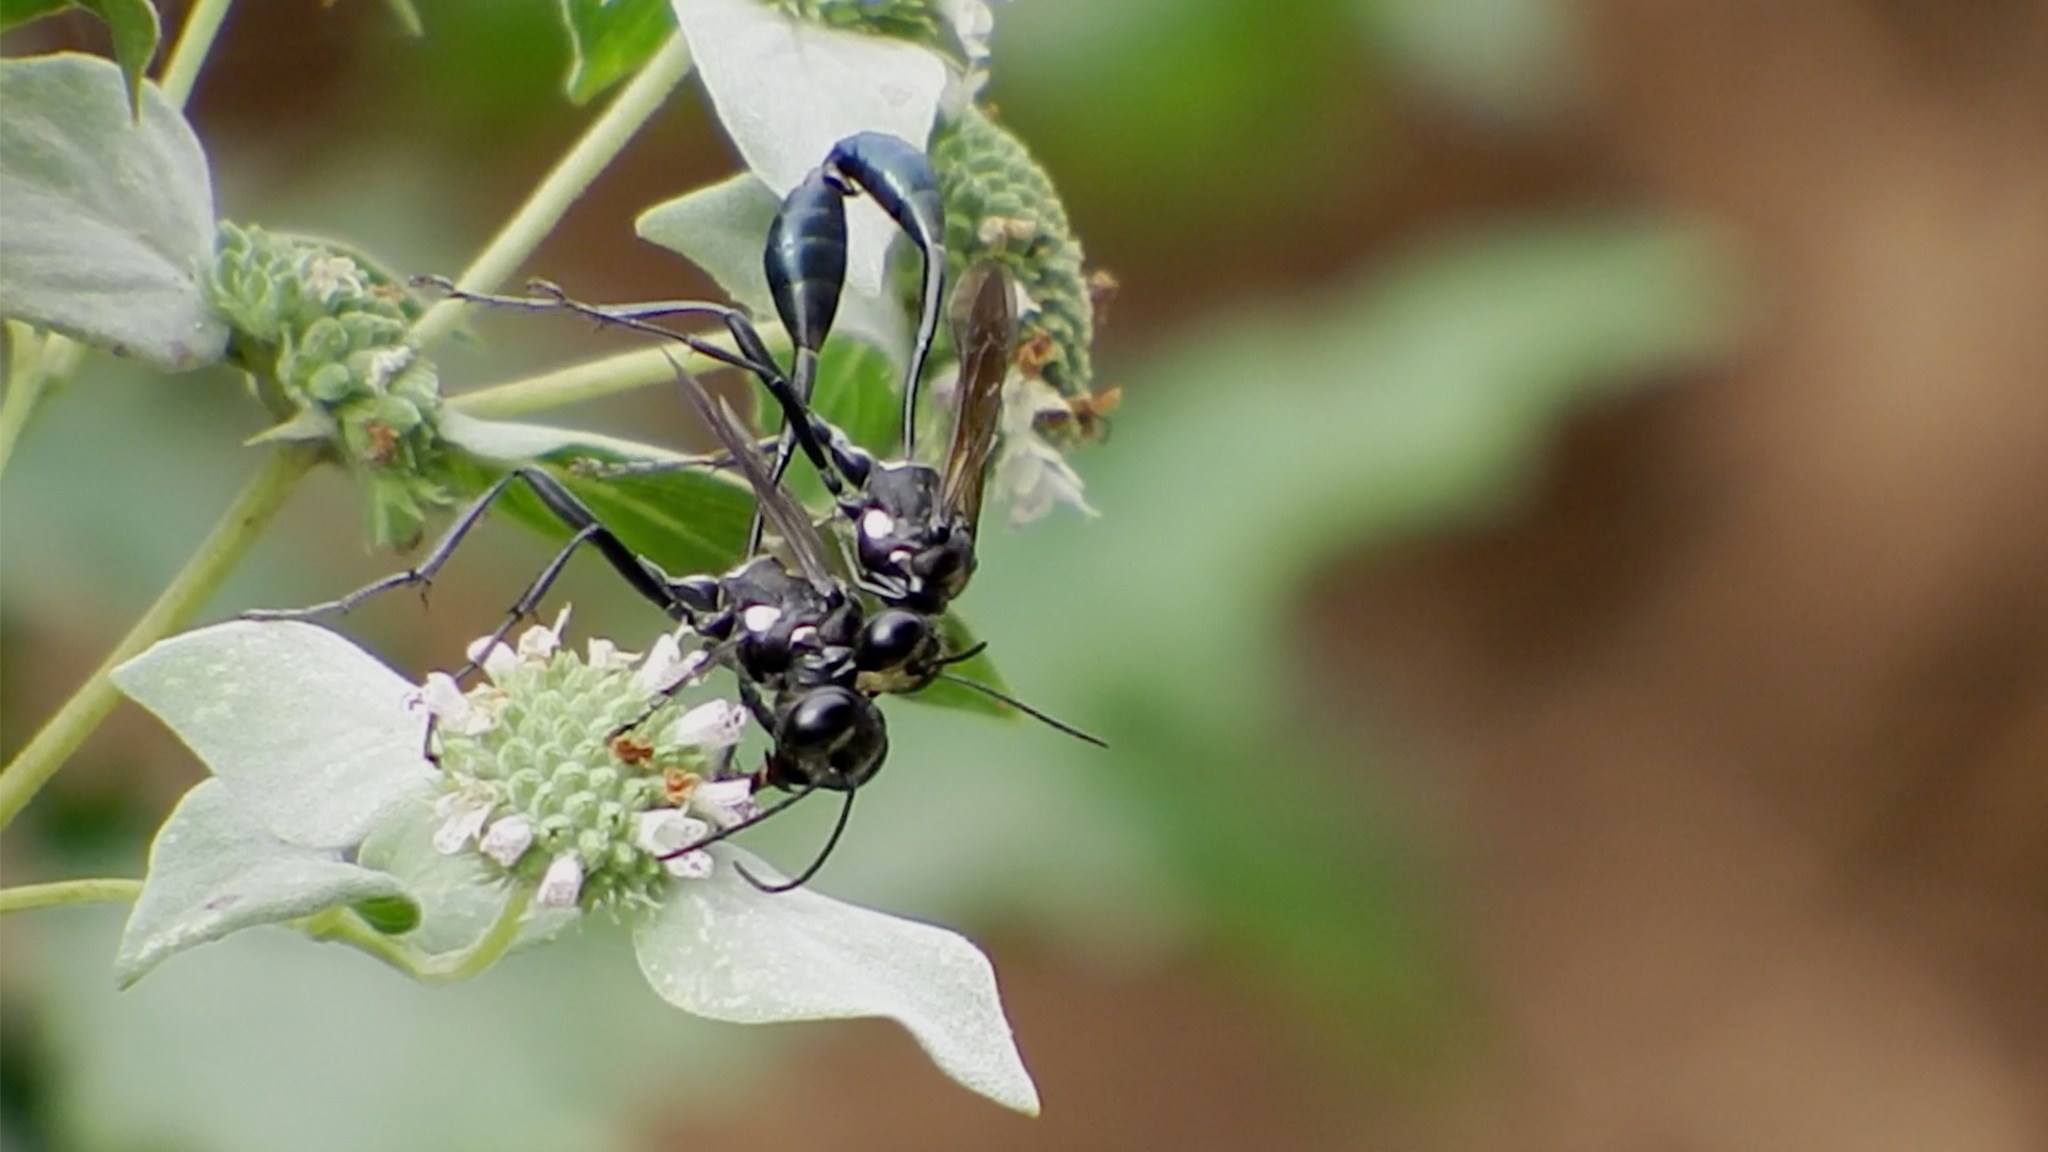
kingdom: Animalia
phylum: Arthropoda
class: Insecta
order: Hymenoptera
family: Sphecidae
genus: Eremnophila
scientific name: Eremnophila aureonotata
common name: Gold-marked thread-waisted wasp
